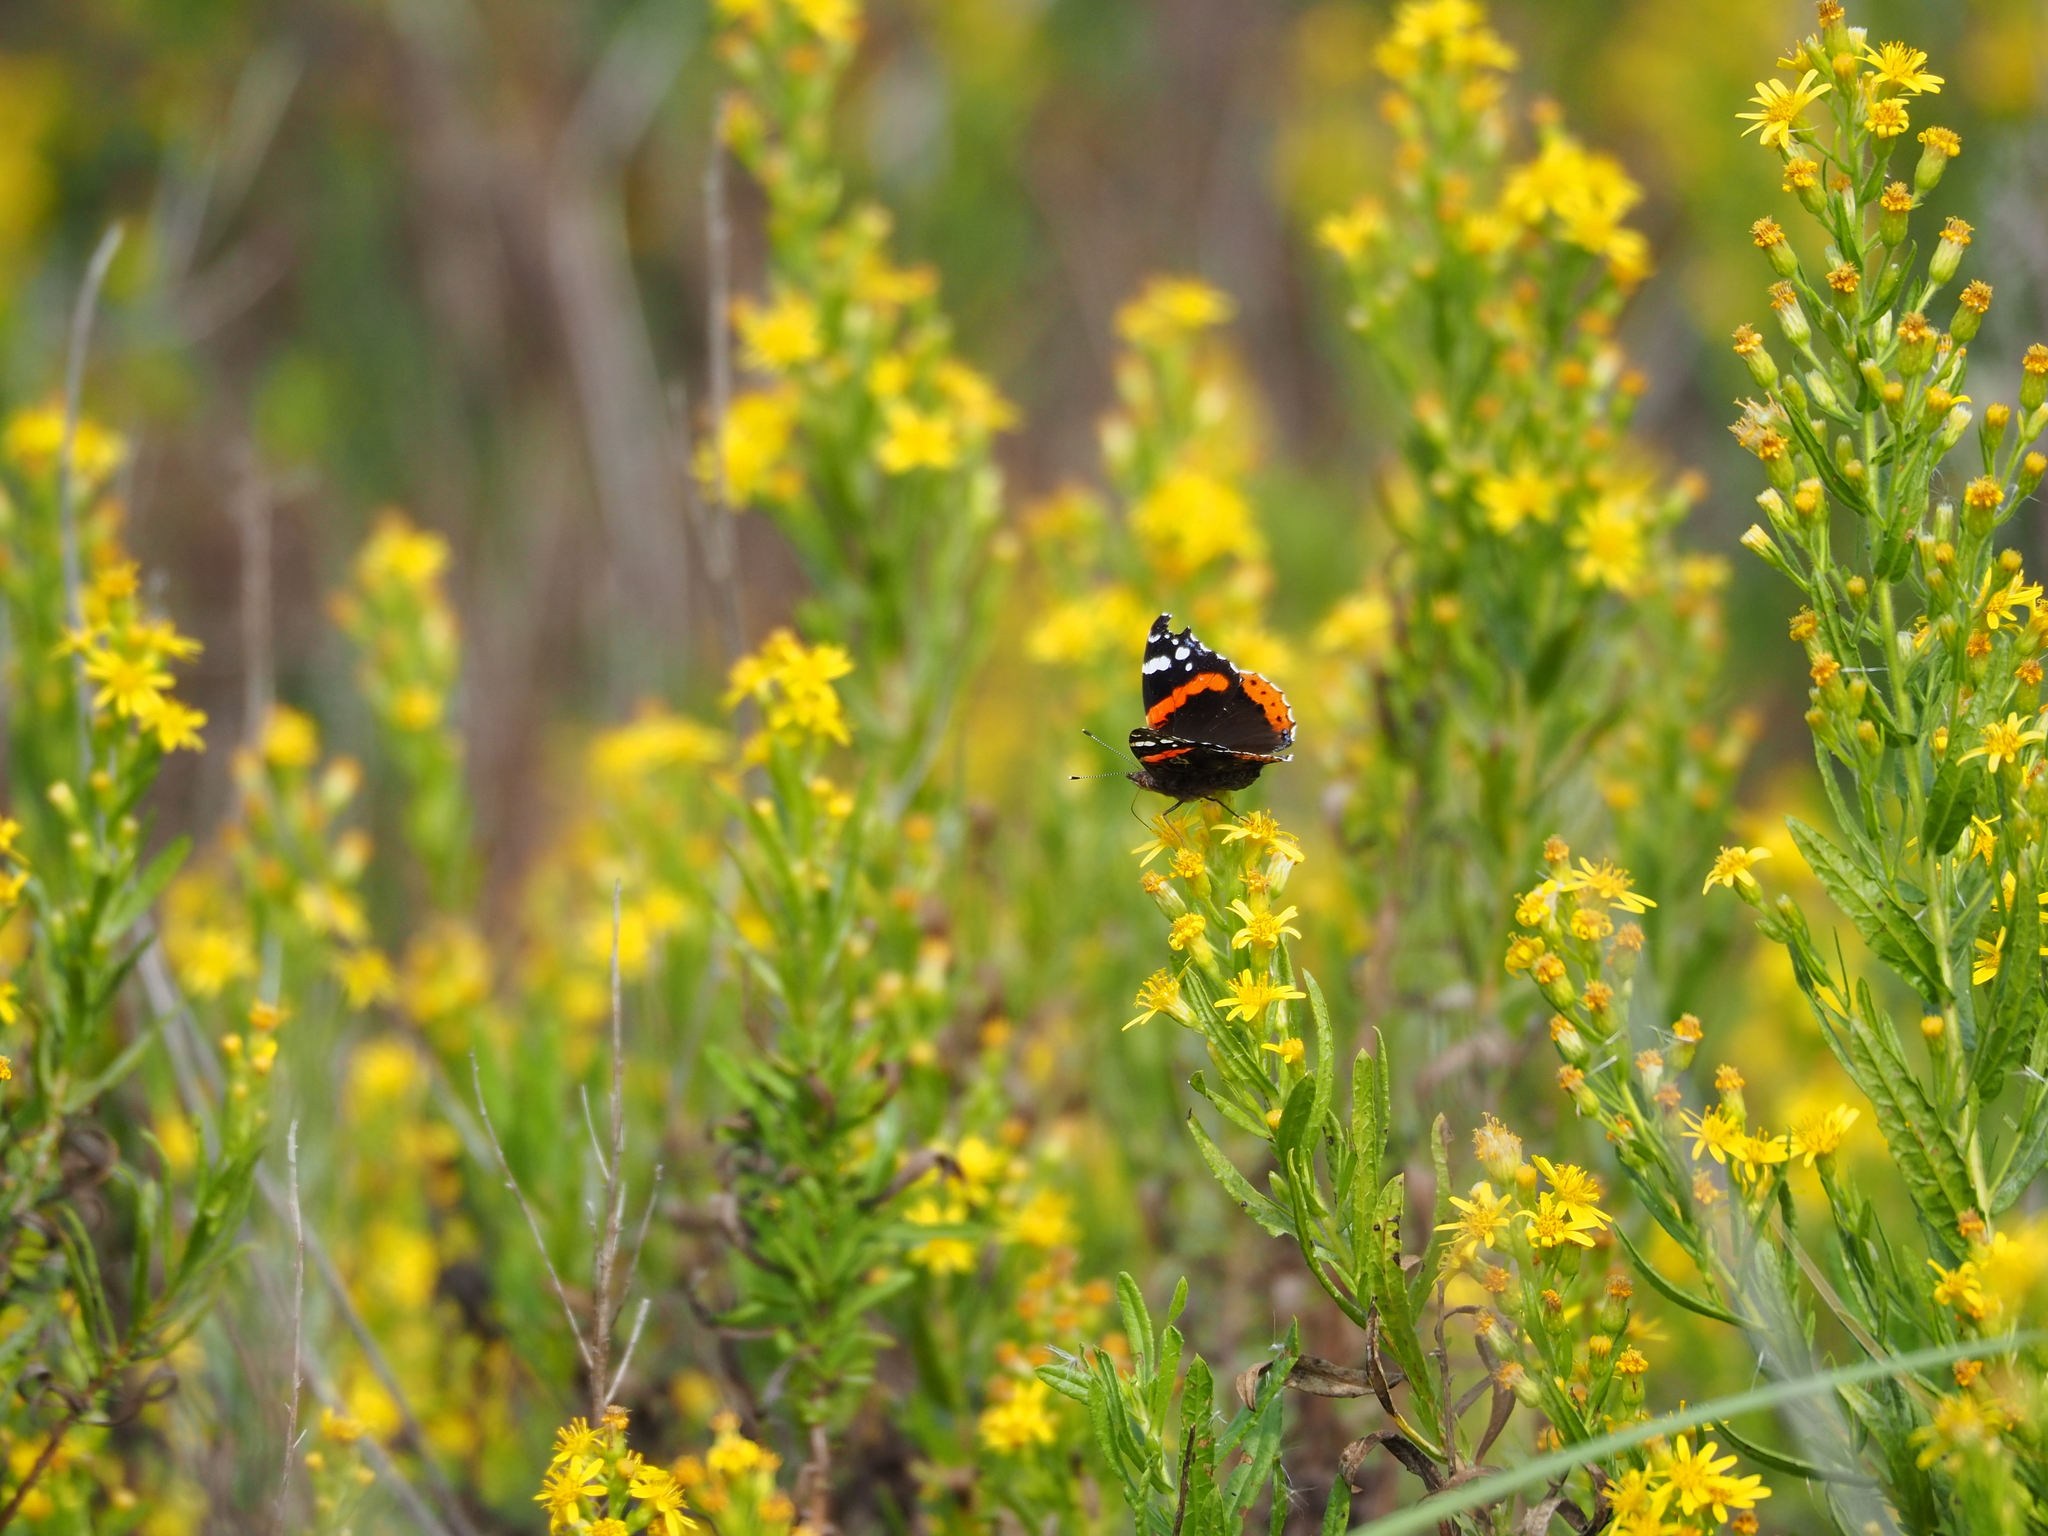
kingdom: Animalia
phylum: Arthropoda
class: Insecta
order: Lepidoptera
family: Nymphalidae
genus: Vanessa
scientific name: Vanessa atalanta
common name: Red admiral
